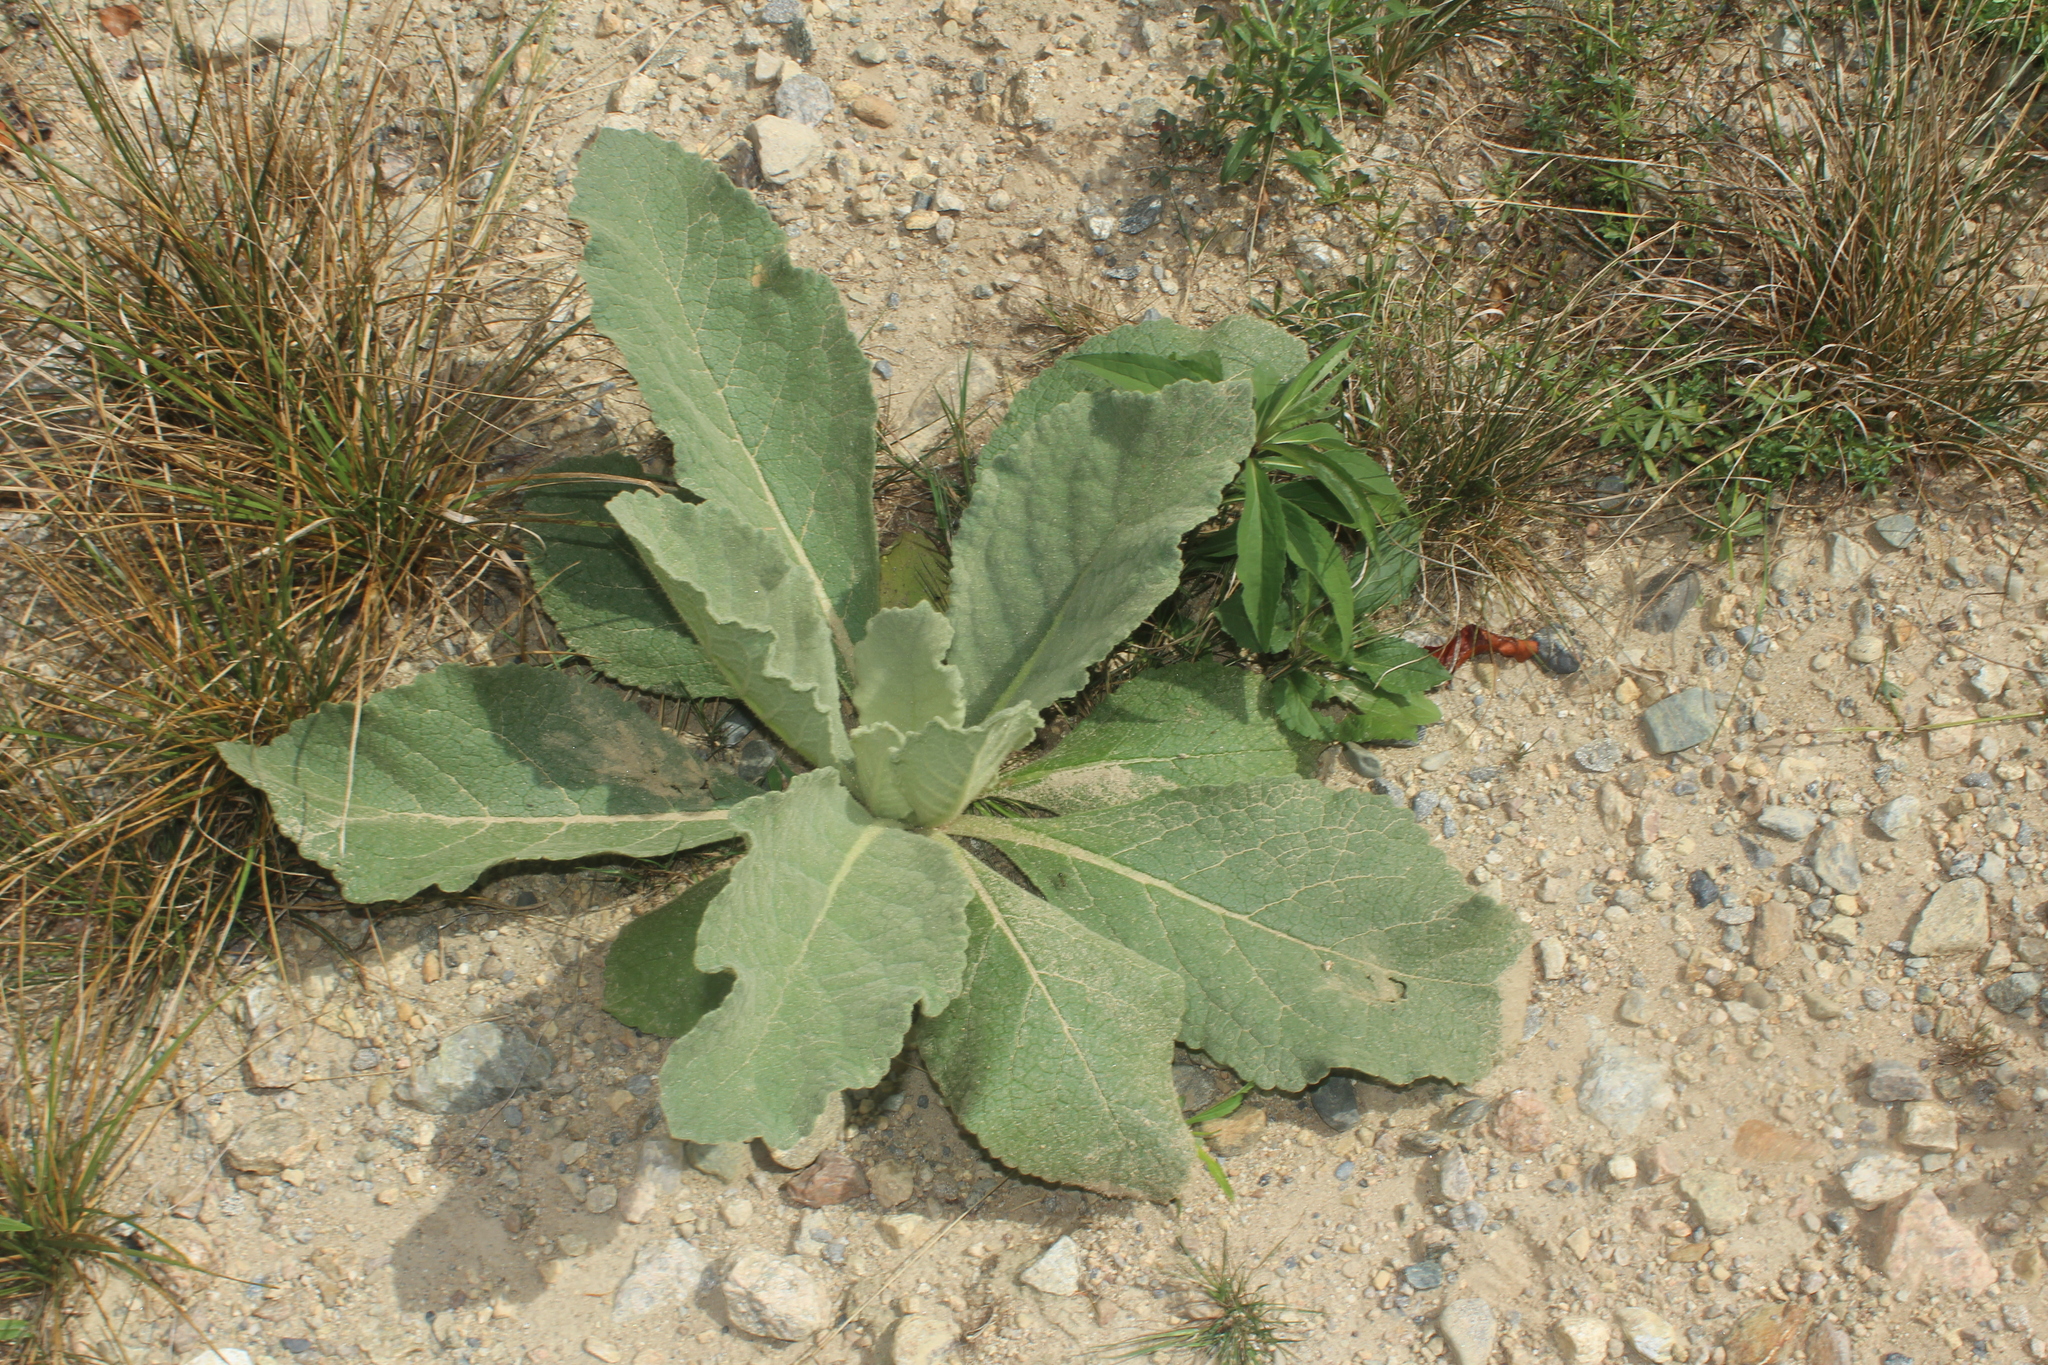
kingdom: Plantae
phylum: Tracheophyta
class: Magnoliopsida
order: Lamiales
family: Scrophulariaceae
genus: Verbascum
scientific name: Verbascum thapsus
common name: Common mullein
